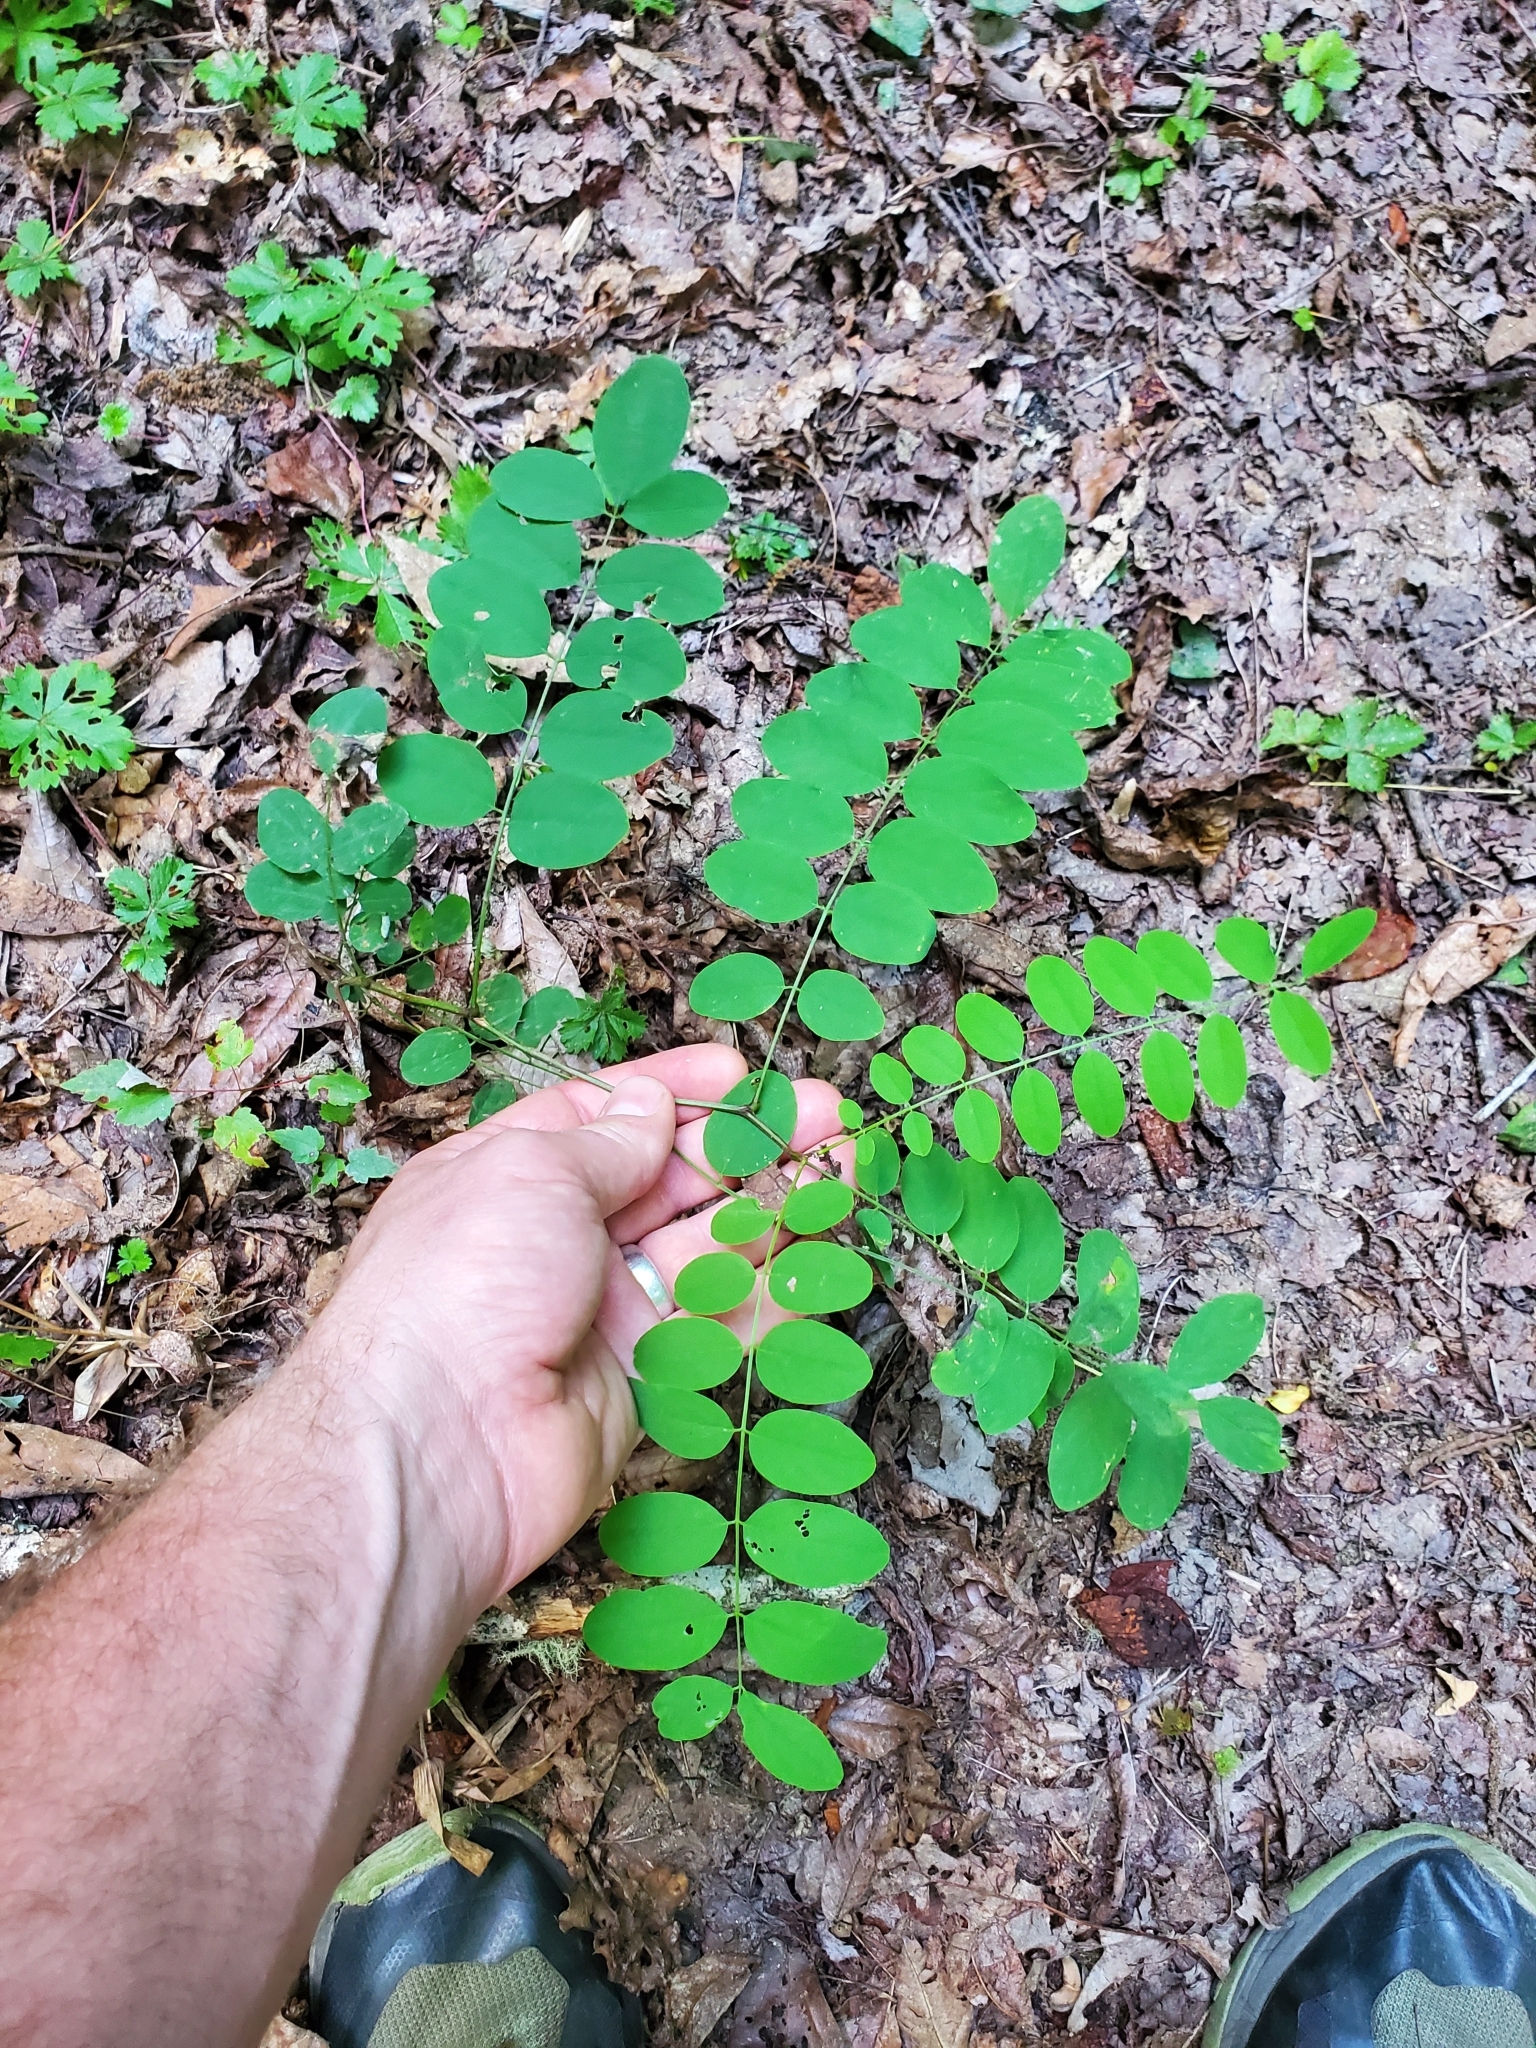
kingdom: Plantae
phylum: Tracheophyta
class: Magnoliopsida
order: Fabales
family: Fabaceae
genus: Robinia
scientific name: Robinia pseudoacacia
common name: Black locust
